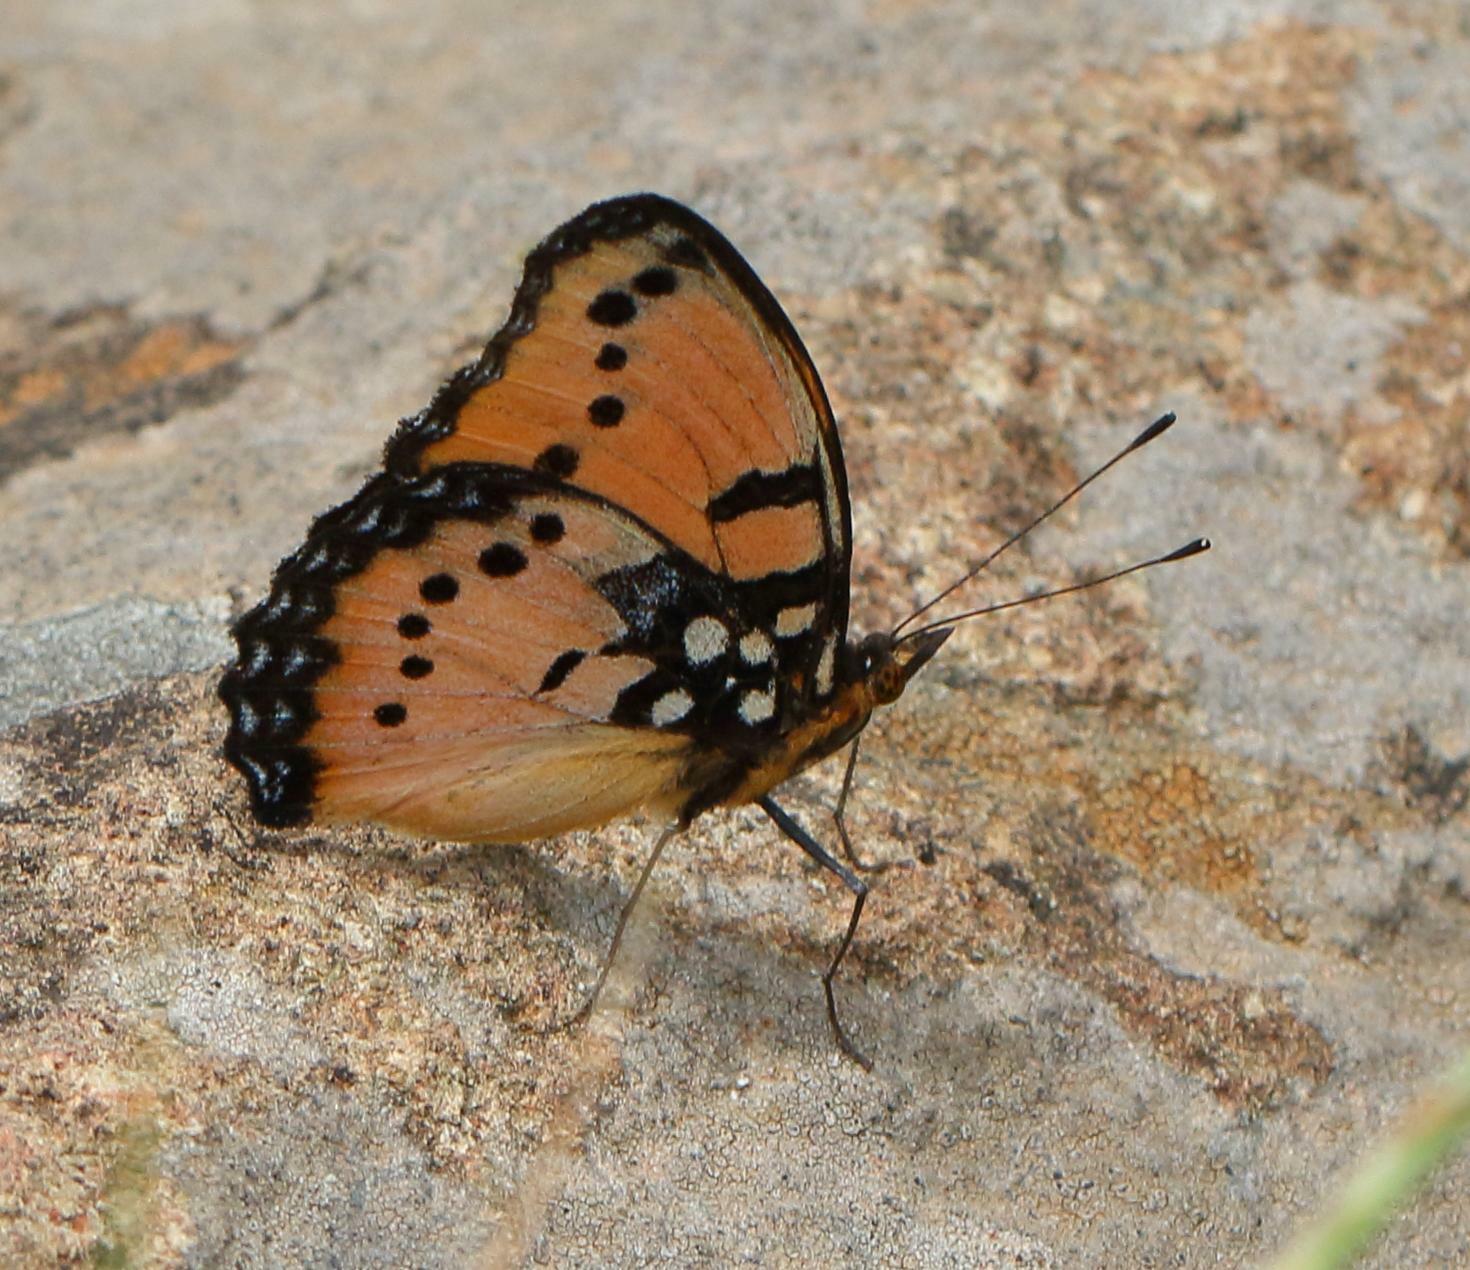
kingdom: Animalia
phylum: Arthropoda
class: Insecta
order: Lepidoptera
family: Nymphalidae
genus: Precis
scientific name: Precis octavia
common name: Gaudy commodore
